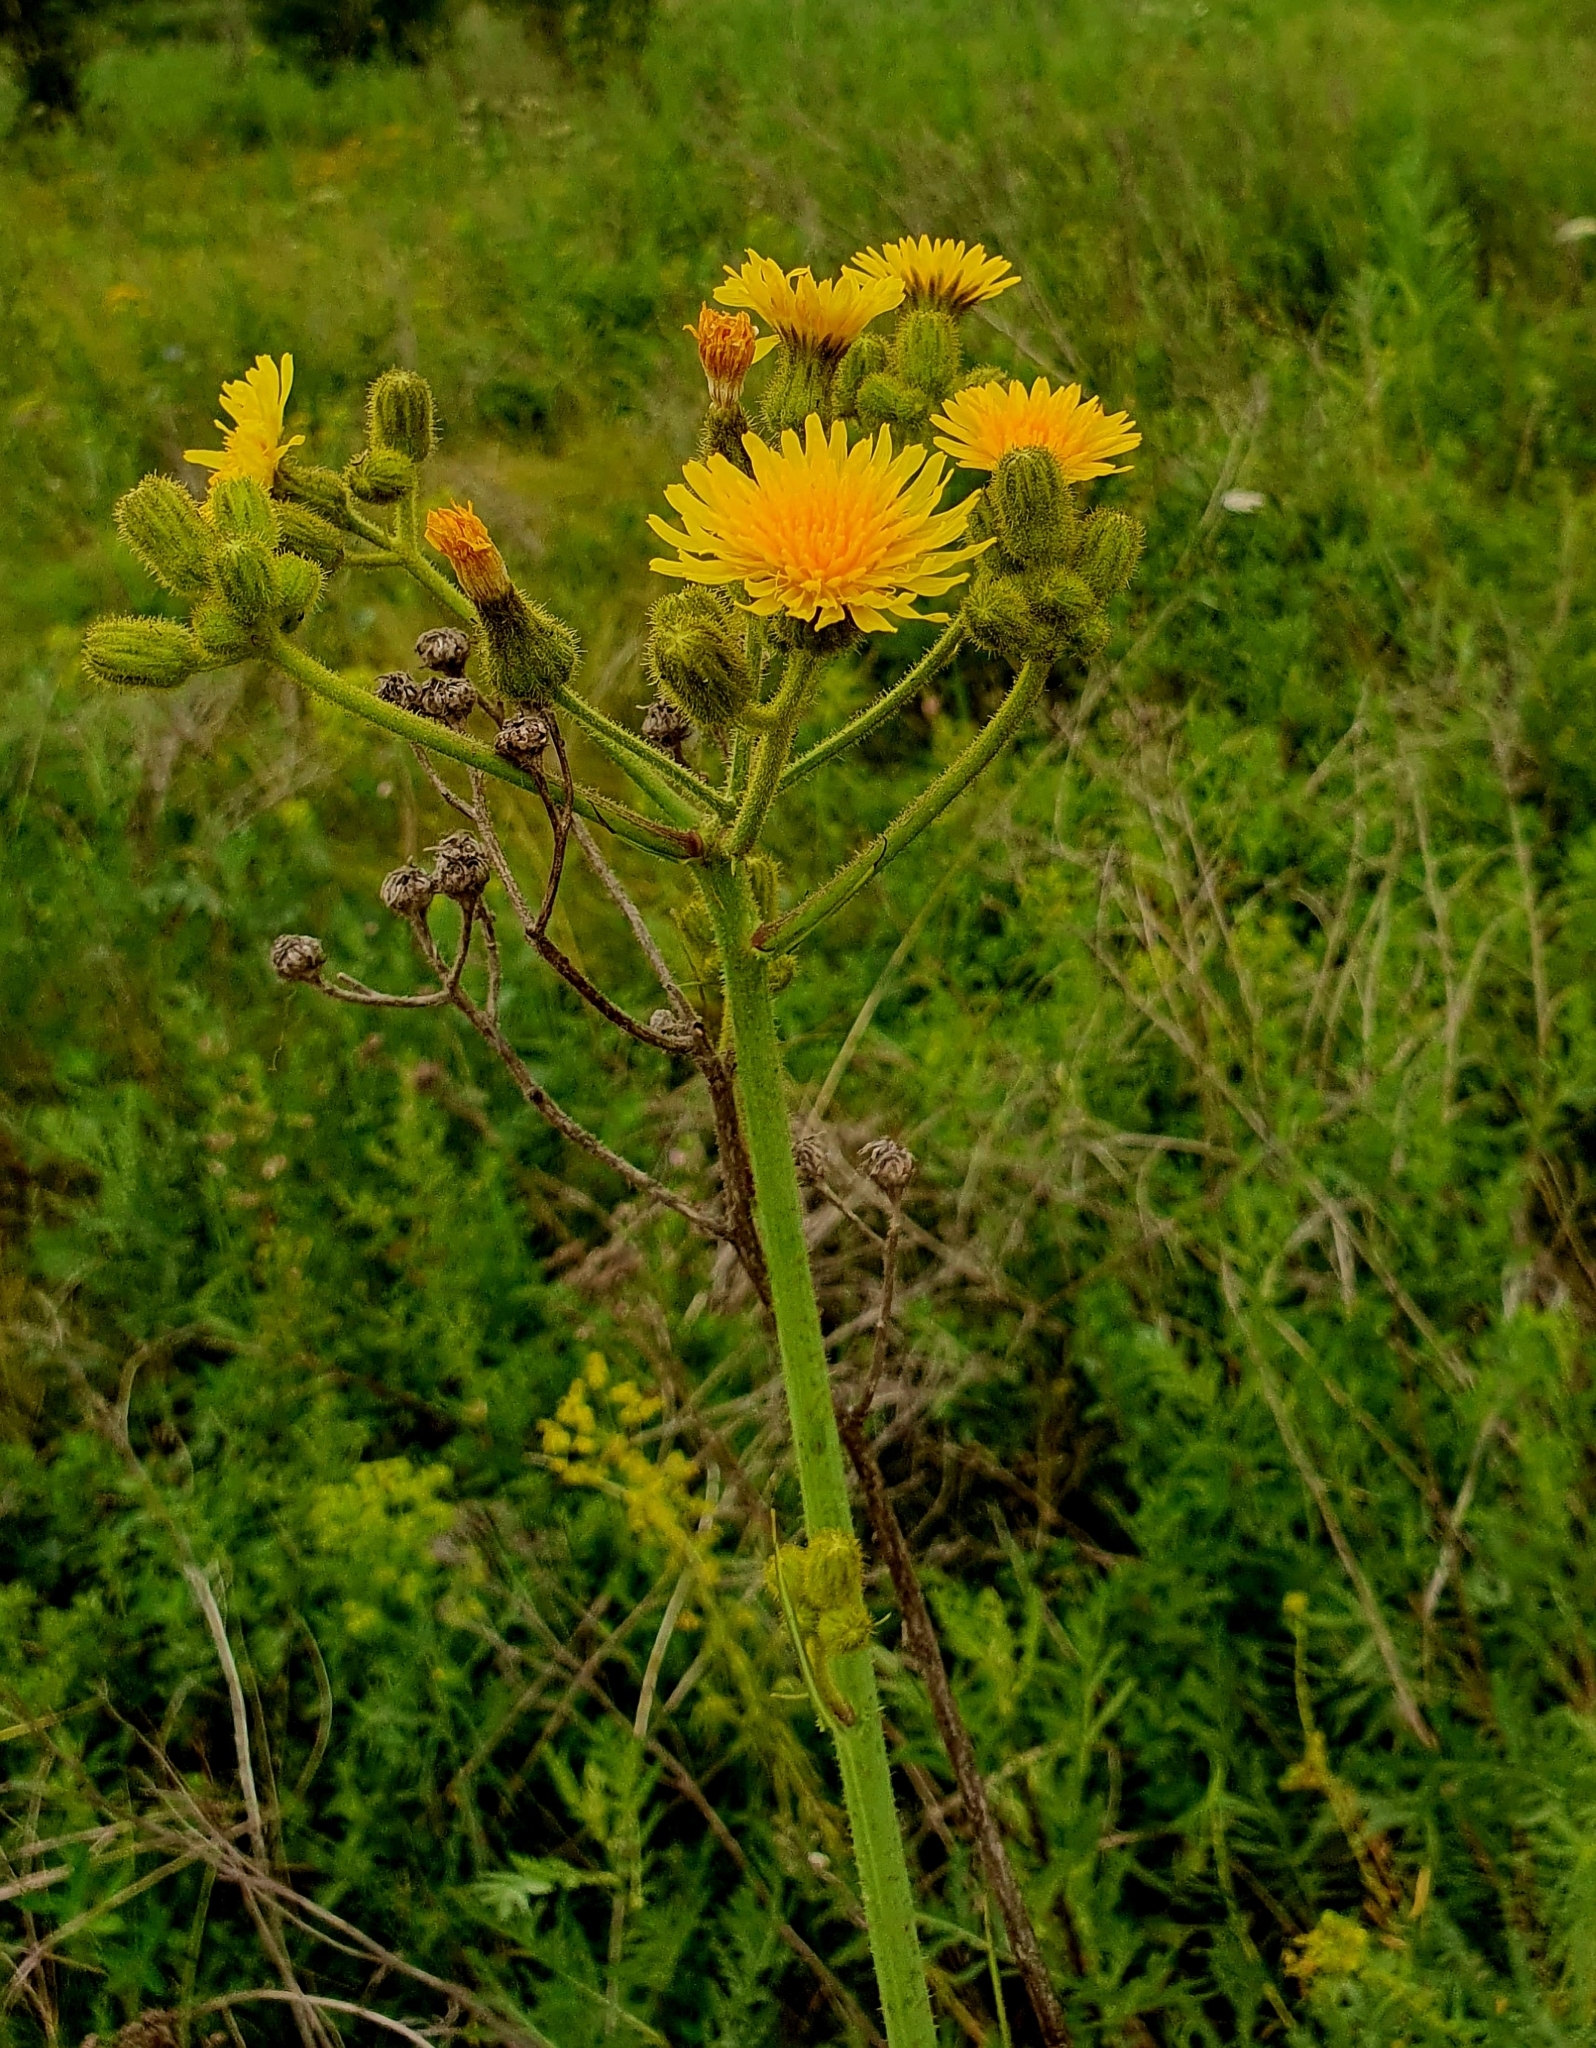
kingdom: Plantae
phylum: Tracheophyta
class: Magnoliopsida
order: Asterales
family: Asteraceae
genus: Sonchus
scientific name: Sonchus palustris
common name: Marsh sow-thistle
